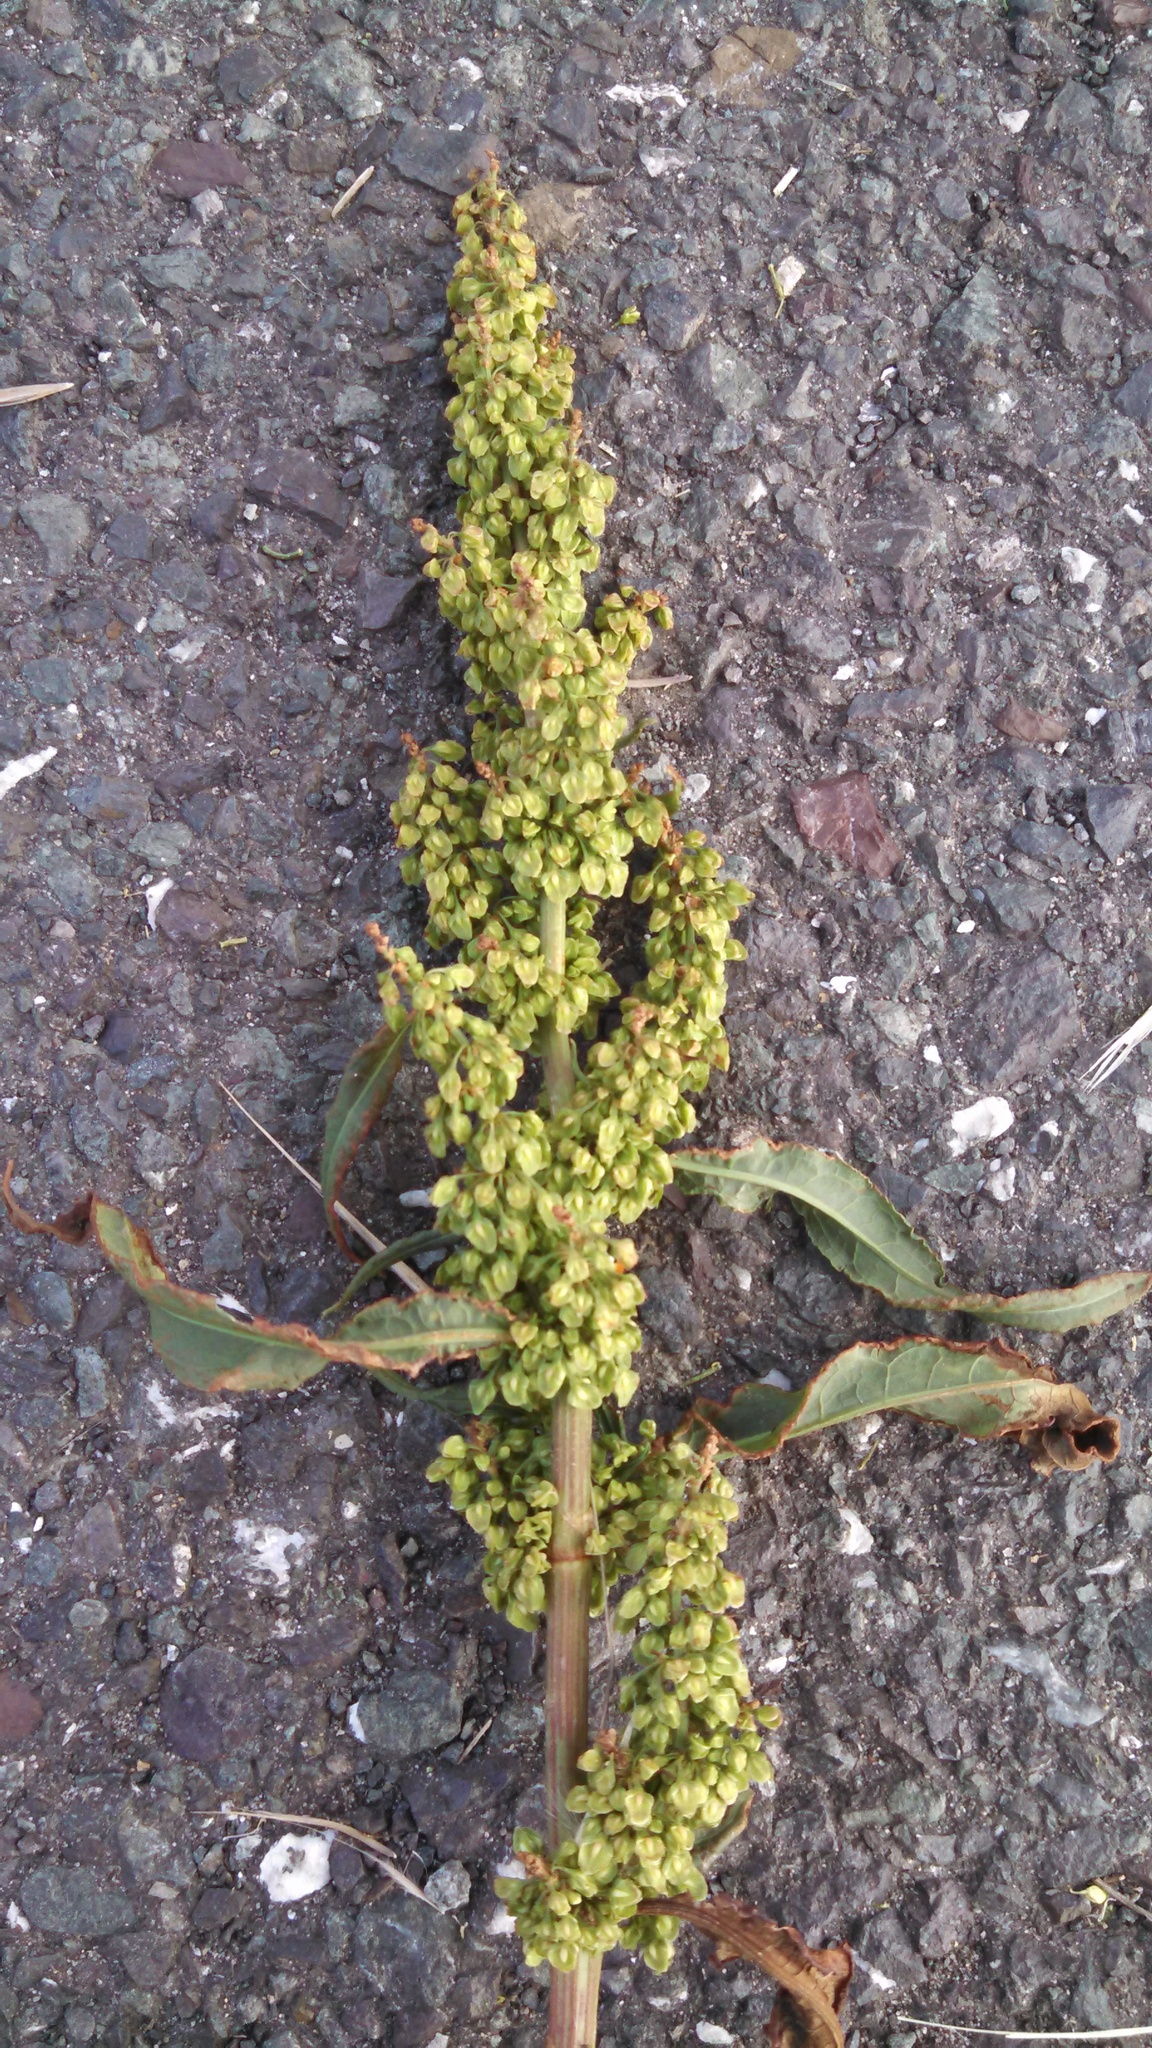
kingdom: Plantae
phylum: Tracheophyta
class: Magnoliopsida
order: Caryophyllales
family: Polygonaceae
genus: Rumex
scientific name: Rumex crispus
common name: Curled dock
